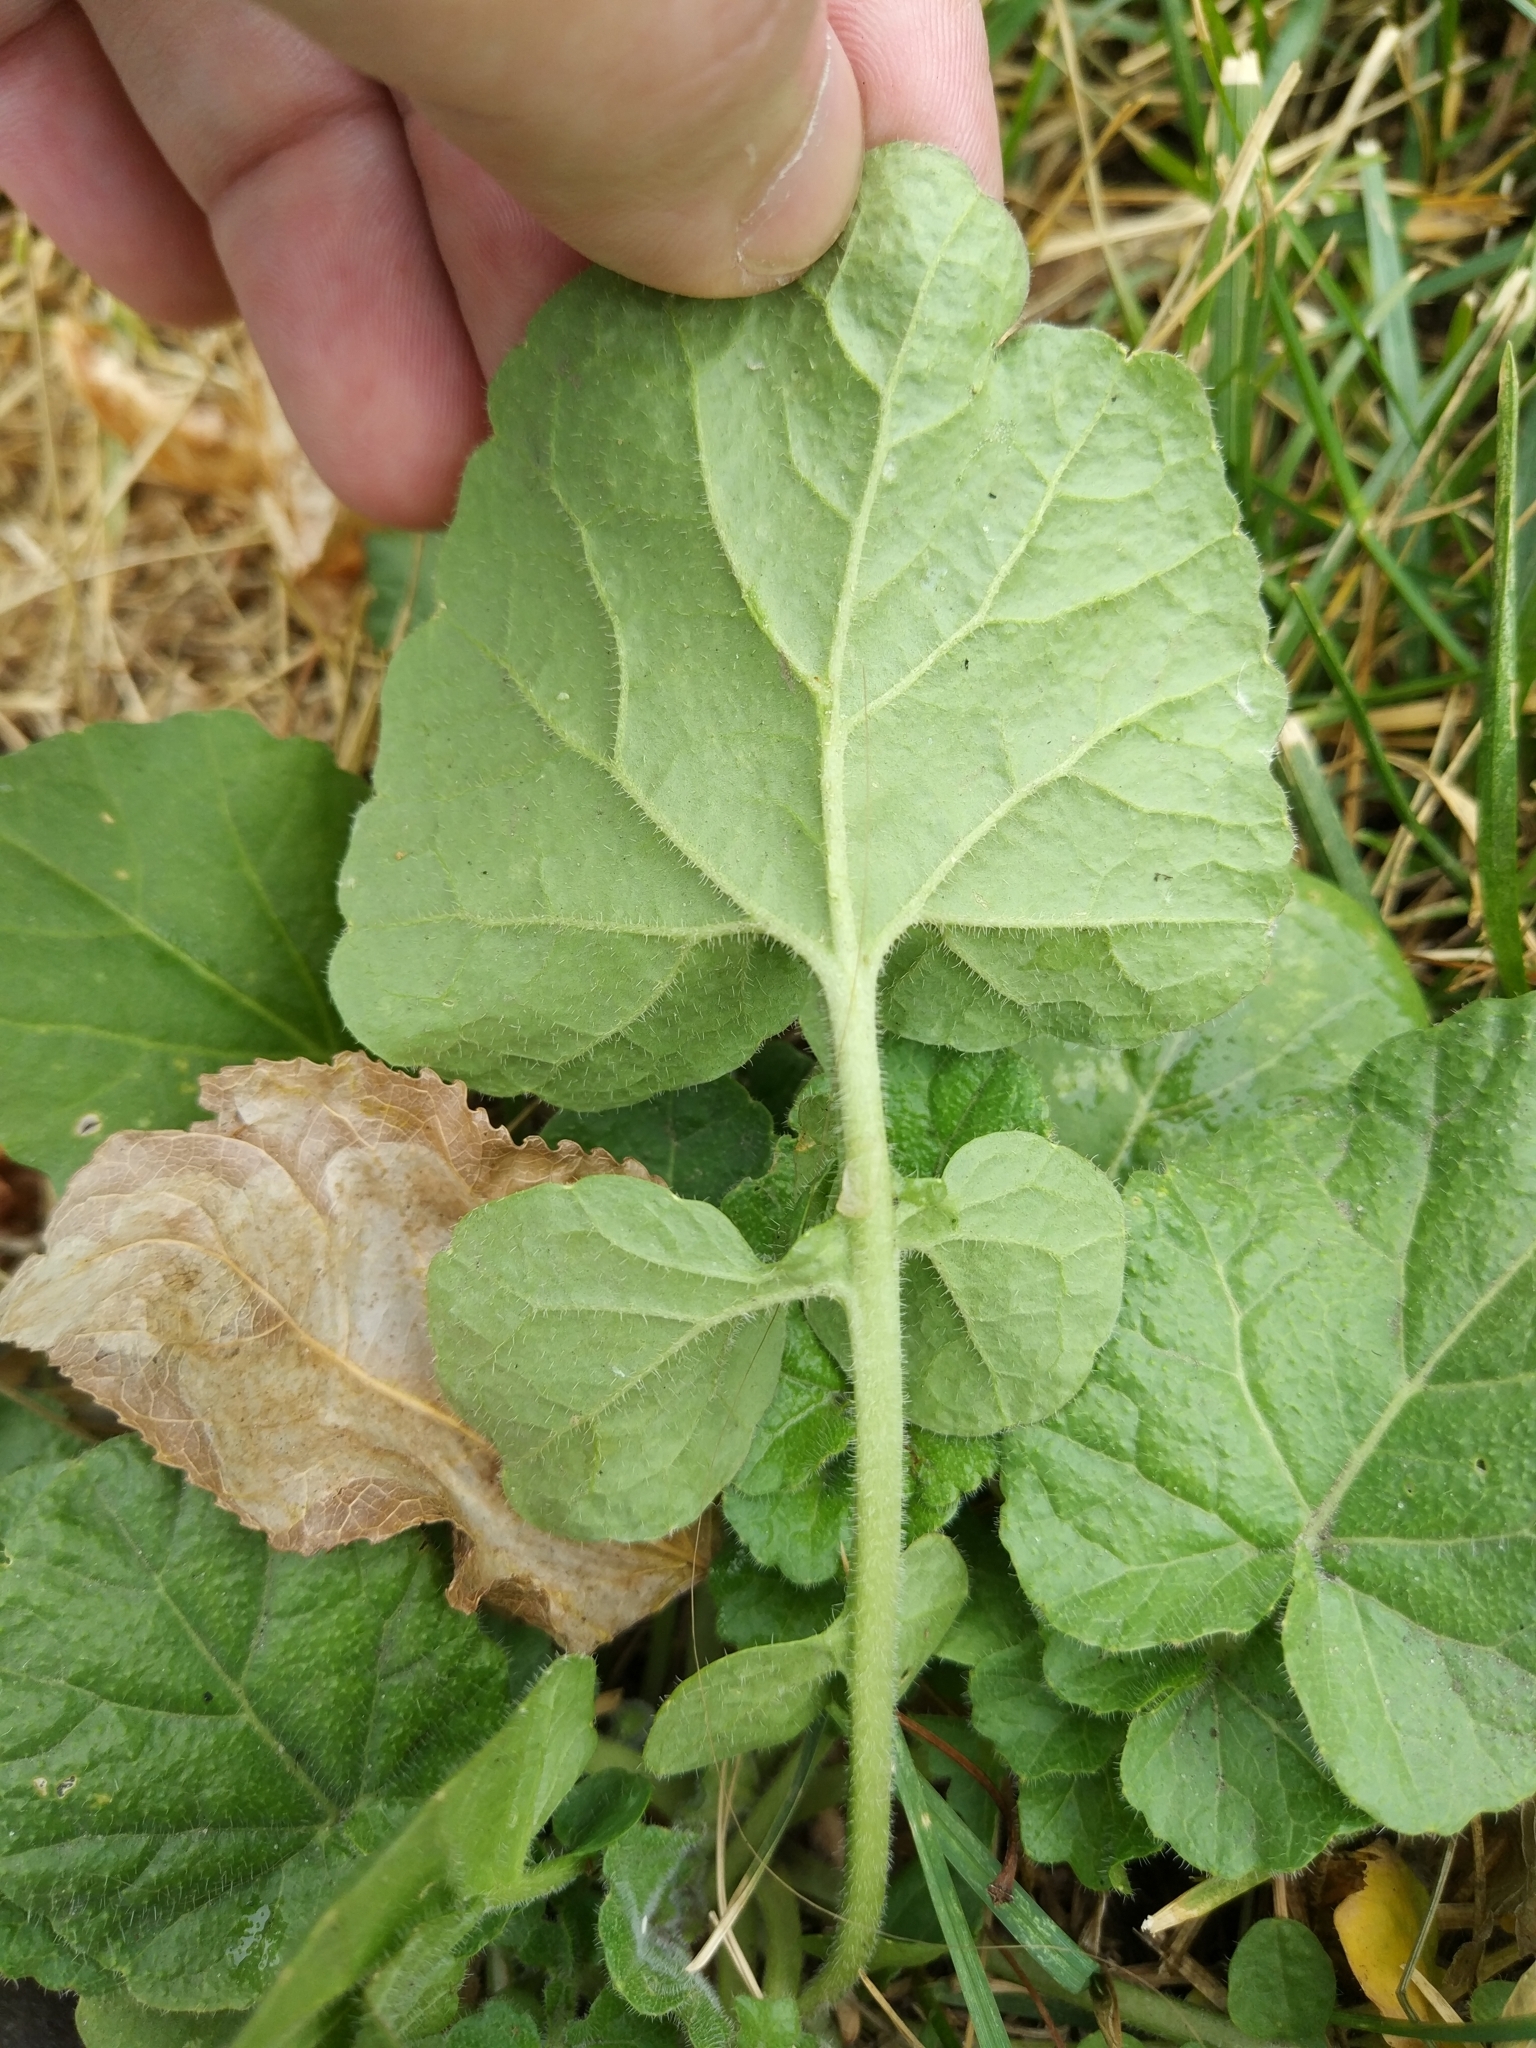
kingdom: Plantae
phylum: Tracheophyta
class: Magnoliopsida
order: Brassicales
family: Brassicaceae
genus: Barbarea
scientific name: Barbarea vulgaris
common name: Cressy-greens
